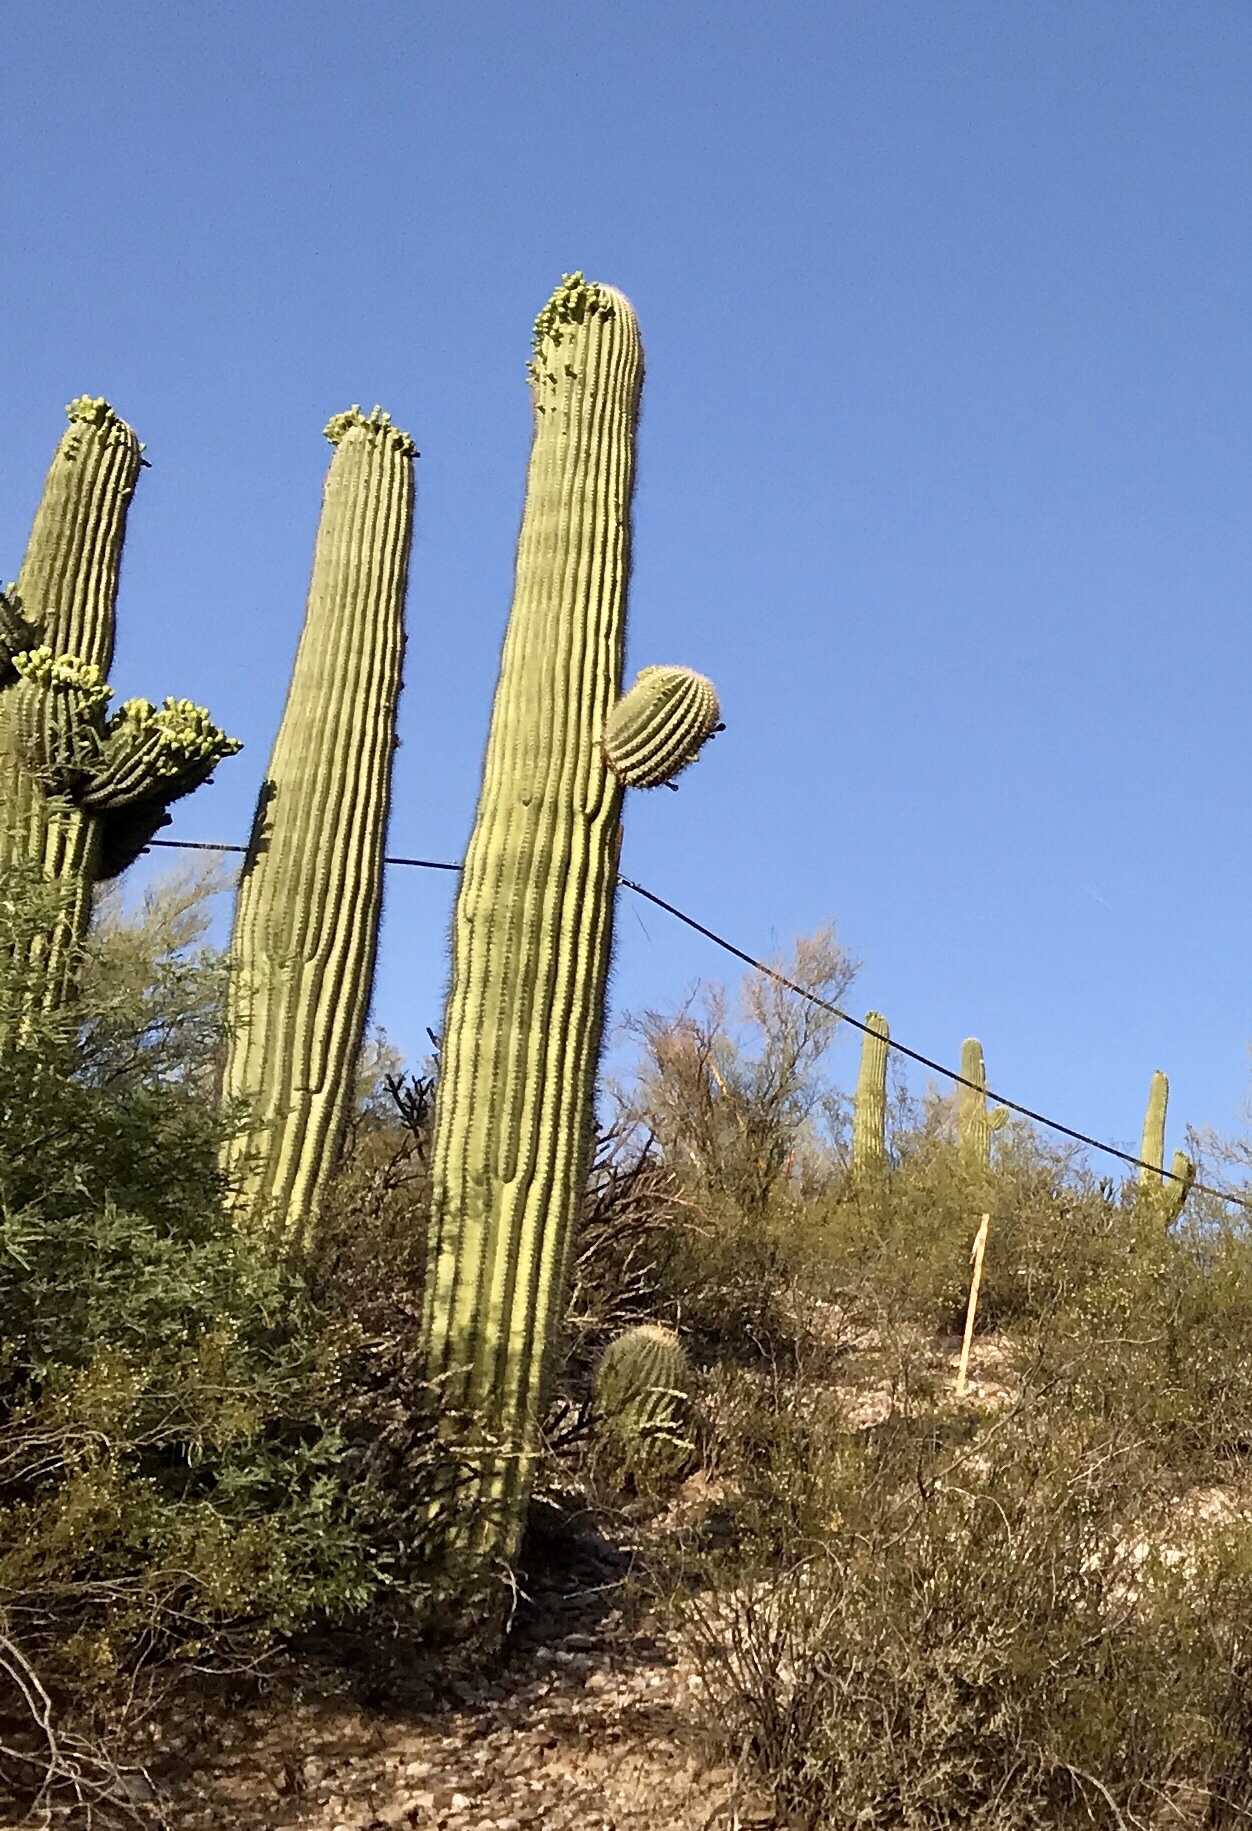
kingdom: Plantae
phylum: Tracheophyta
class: Magnoliopsida
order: Caryophyllales
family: Cactaceae
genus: Carnegiea
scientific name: Carnegiea gigantea
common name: Saguaro
